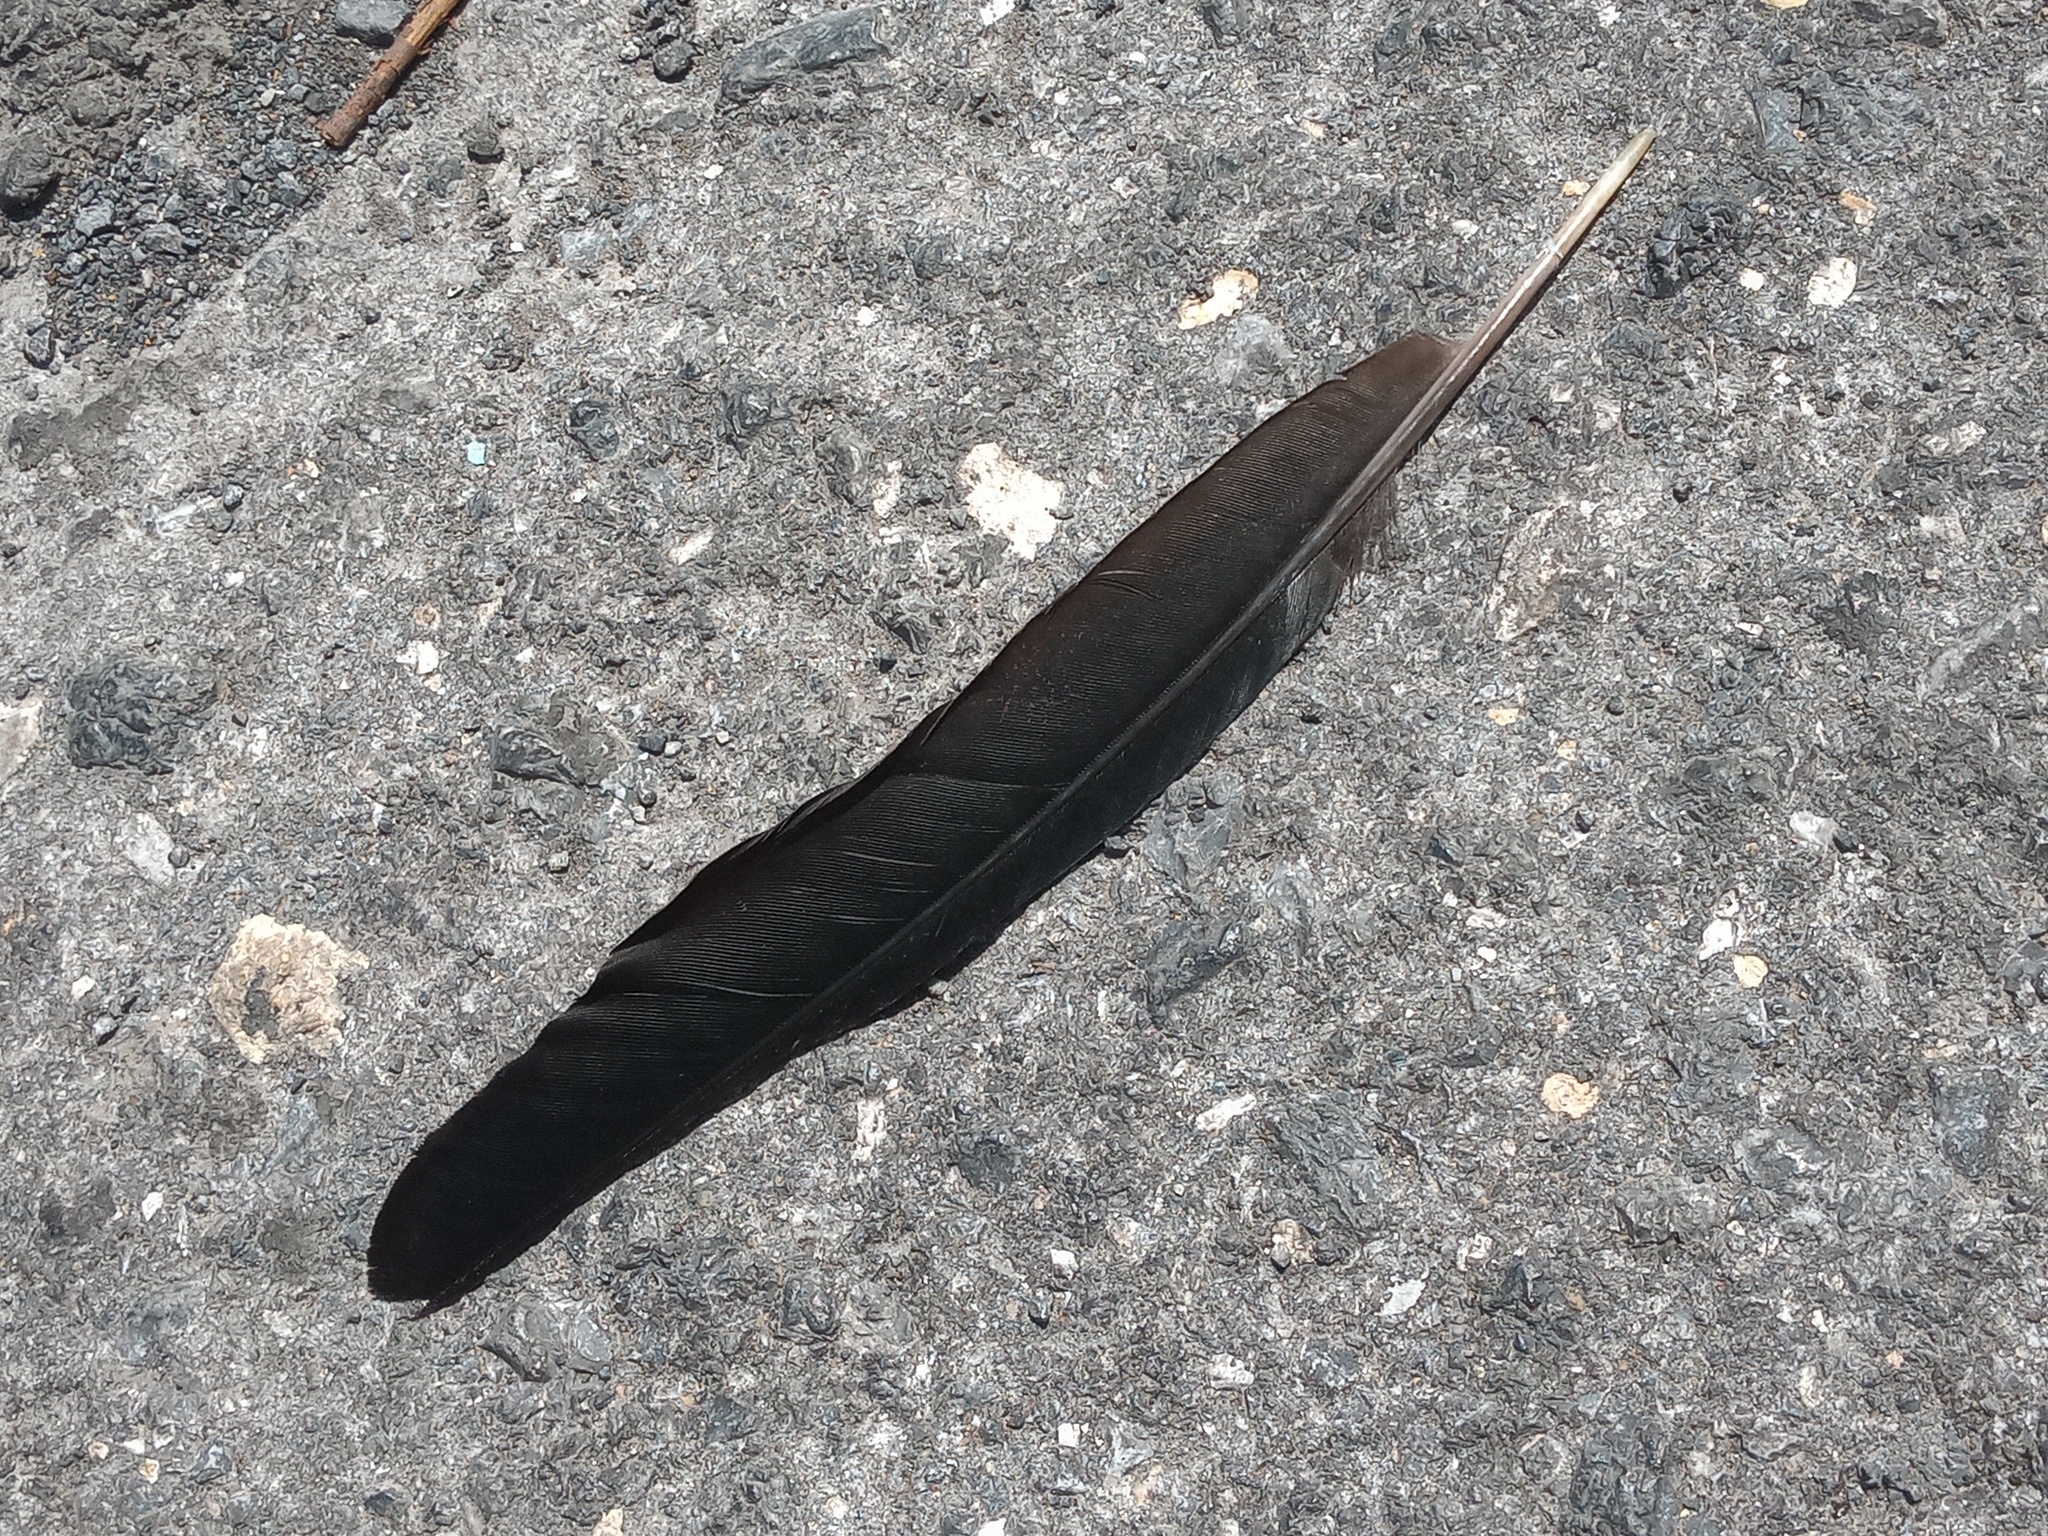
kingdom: Animalia
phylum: Chordata
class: Aves
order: Passeriformes
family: Icteridae
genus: Quiscalus
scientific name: Quiscalus mexicanus
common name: Great-tailed grackle
